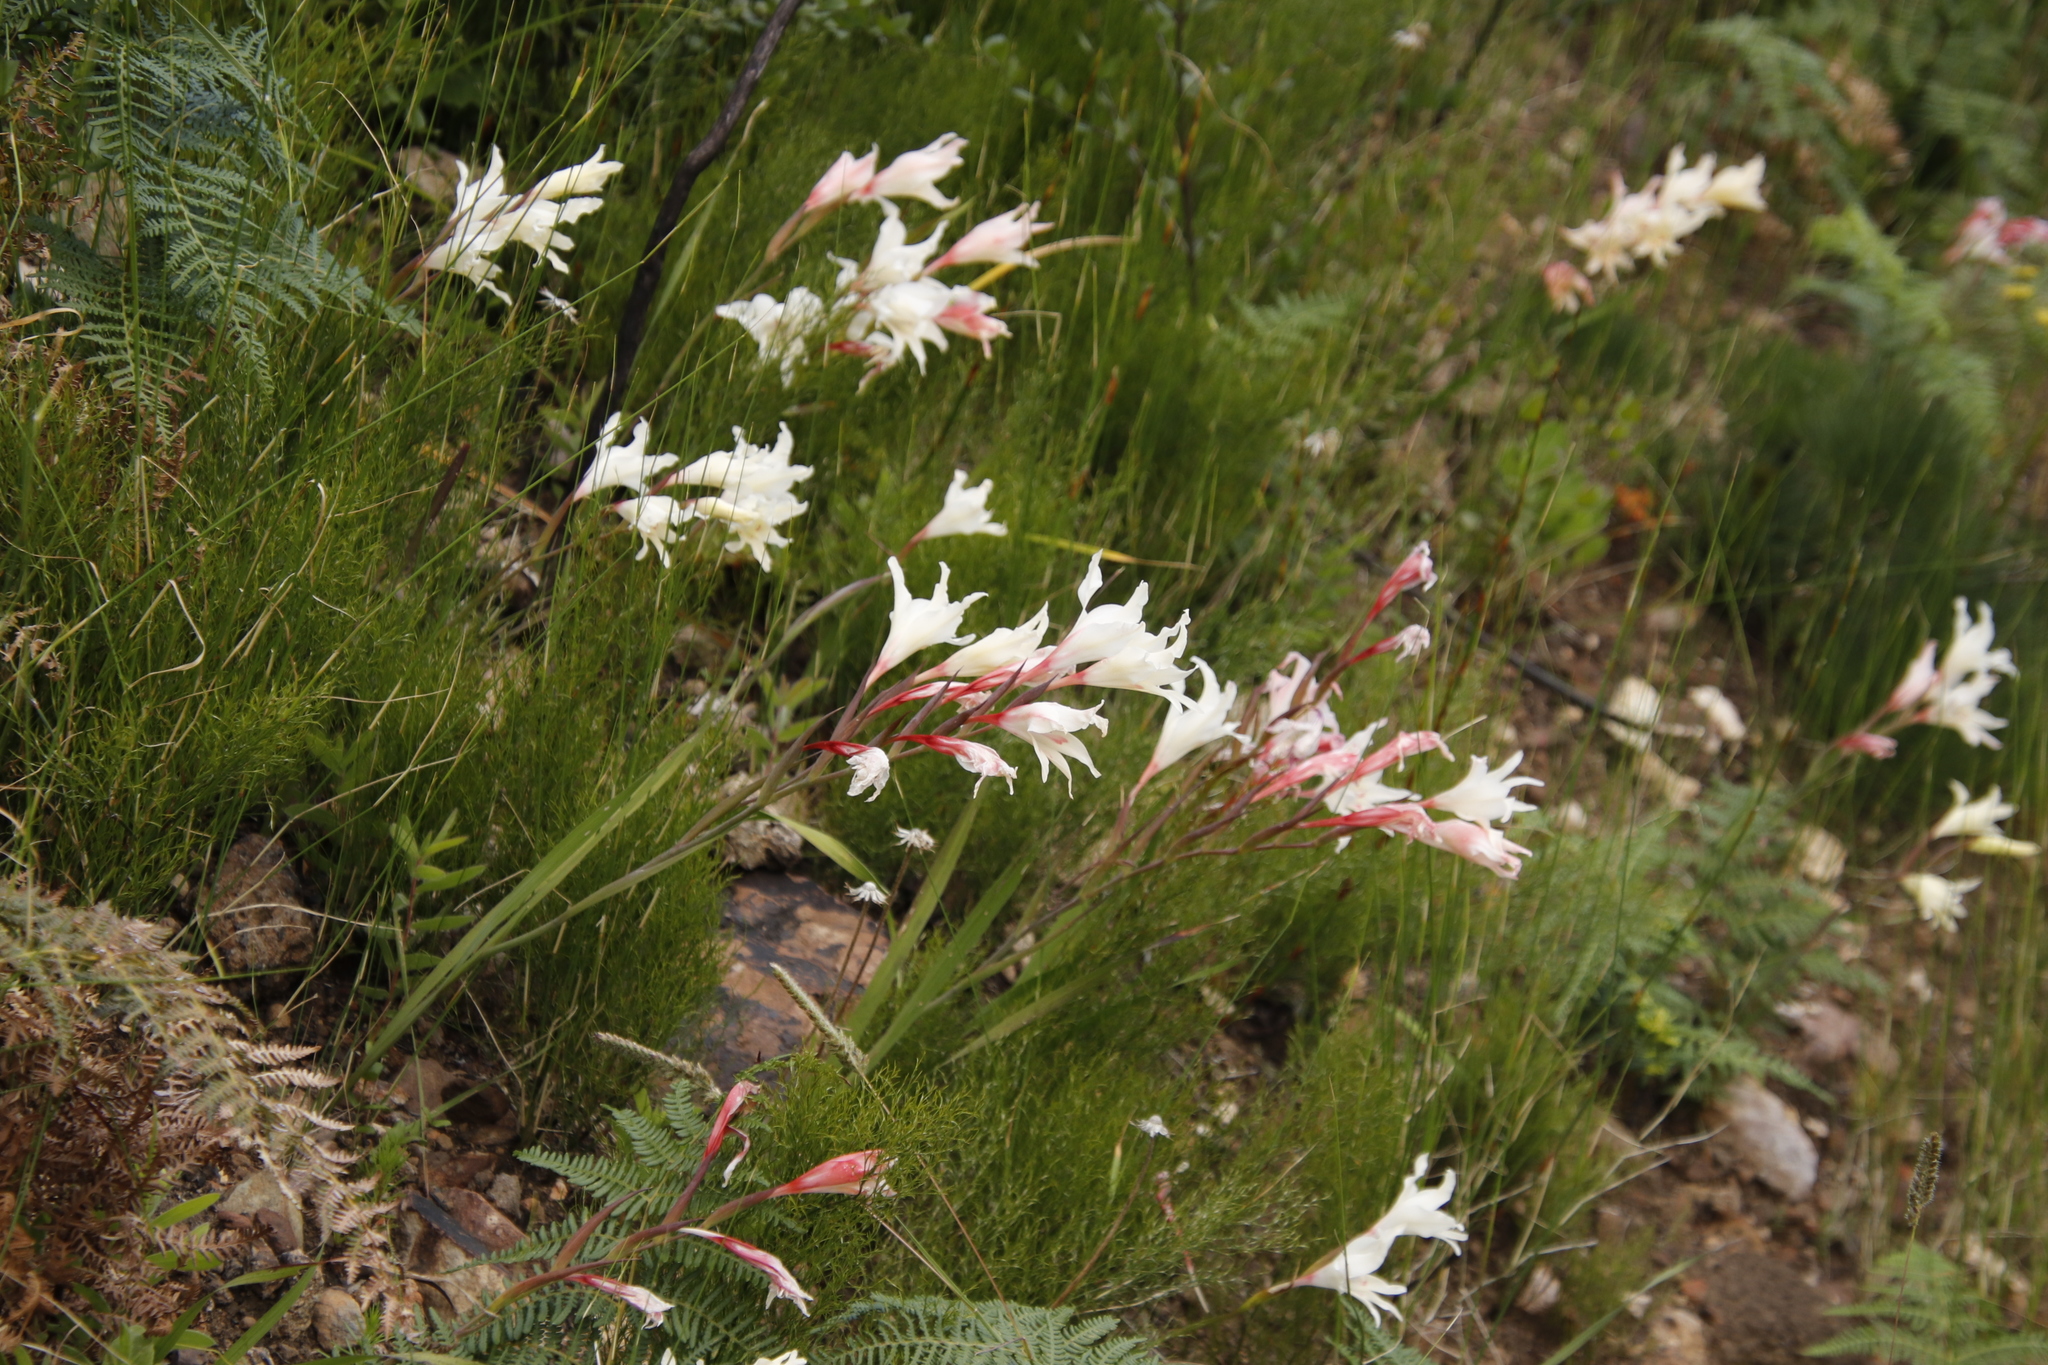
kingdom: Plantae
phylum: Tracheophyta
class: Liliopsida
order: Asparagales
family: Iridaceae
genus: Gladiolus
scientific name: Gladiolus undulatus
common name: Large painted-lady
